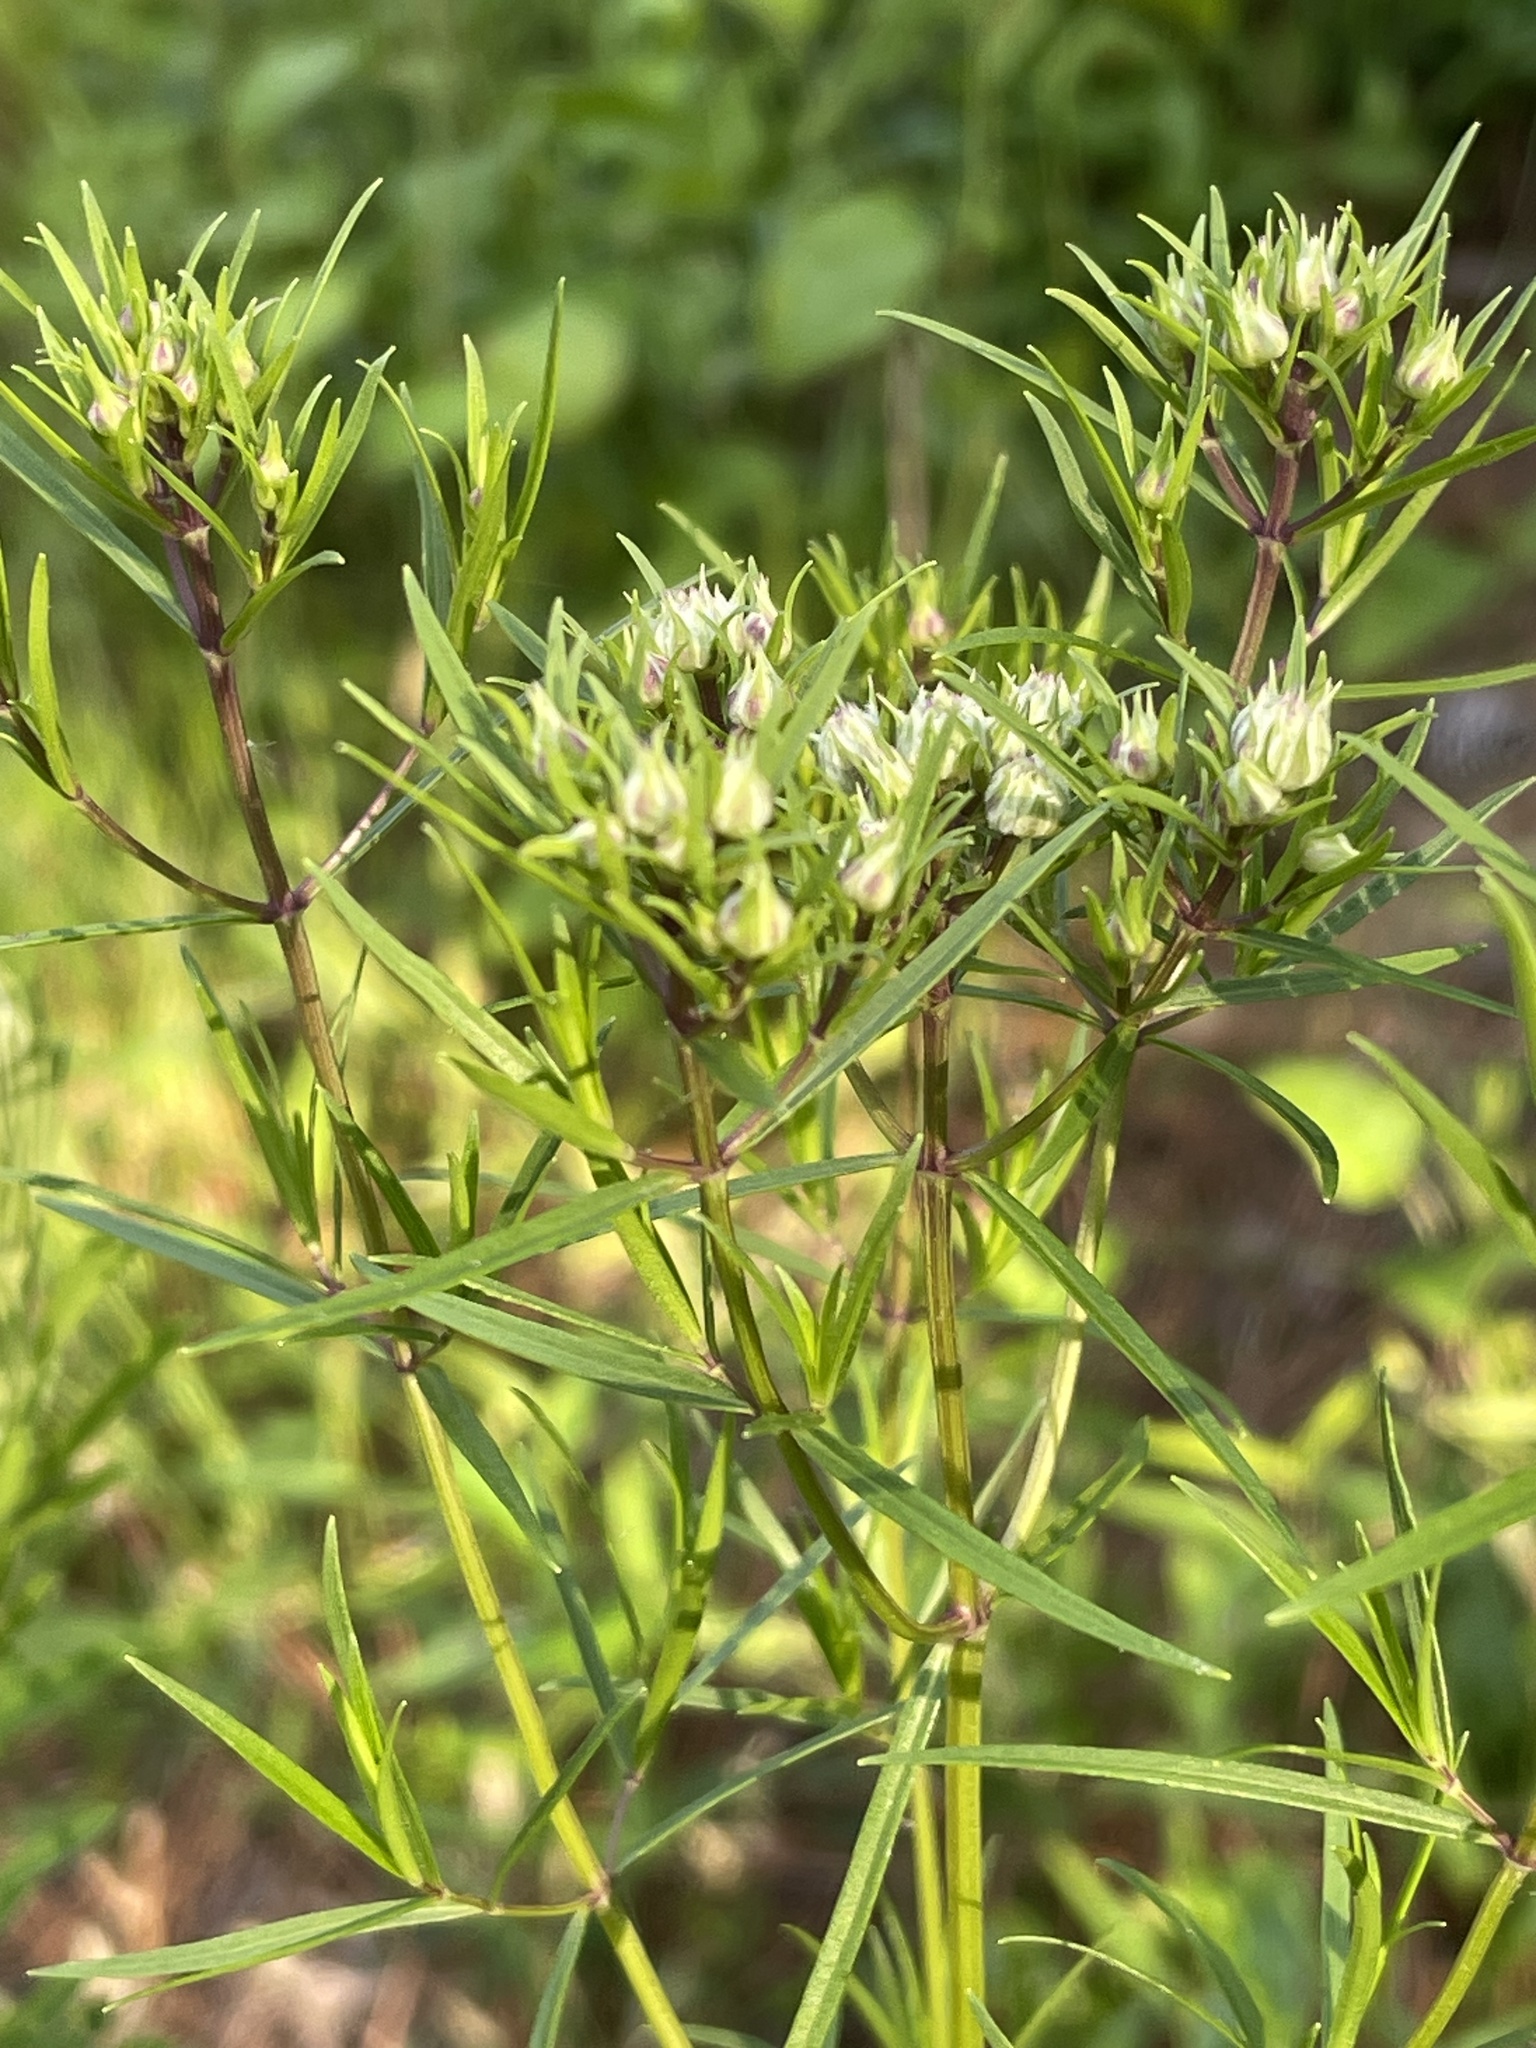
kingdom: Plantae
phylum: Tracheophyta
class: Magnoliopsida
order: Lamiales
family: Lamiaceae
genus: Pycnanthemum
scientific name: Pycnanthemum tenuifolium
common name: Narrow-leaf mountain-mint
